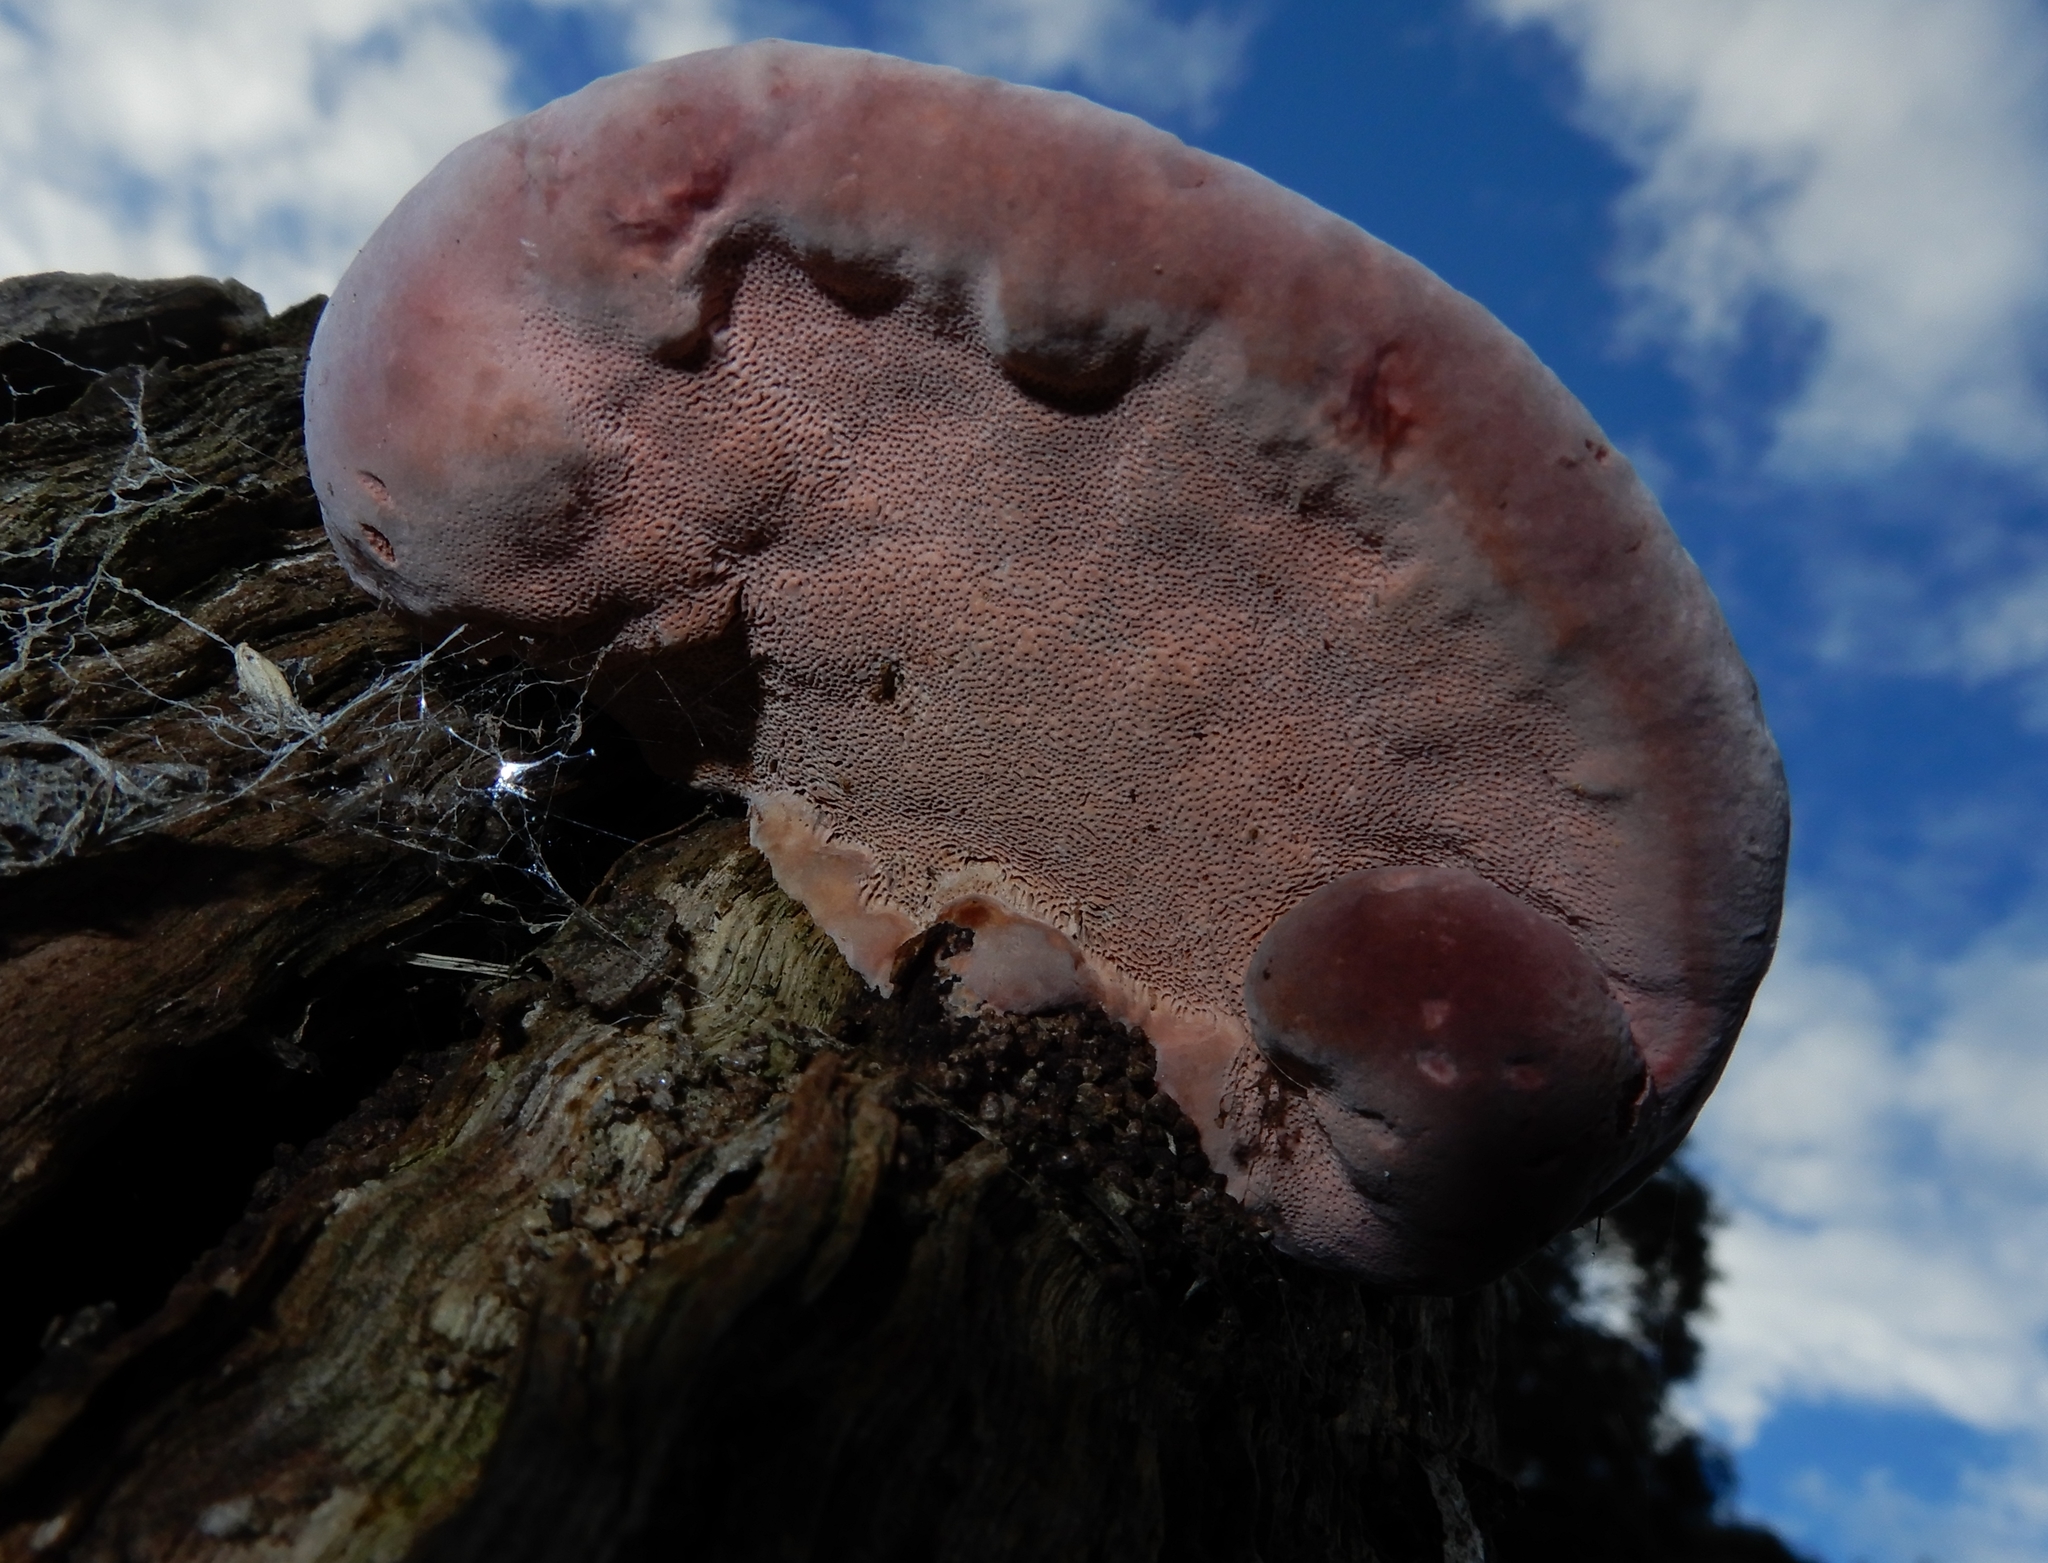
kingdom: Fungi
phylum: Basidiomycota
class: Agaricomycetes
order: Polyporales
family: Fomitopsidaceae
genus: Rhodofomitopsis
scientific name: Rhodofomitopsis feei
